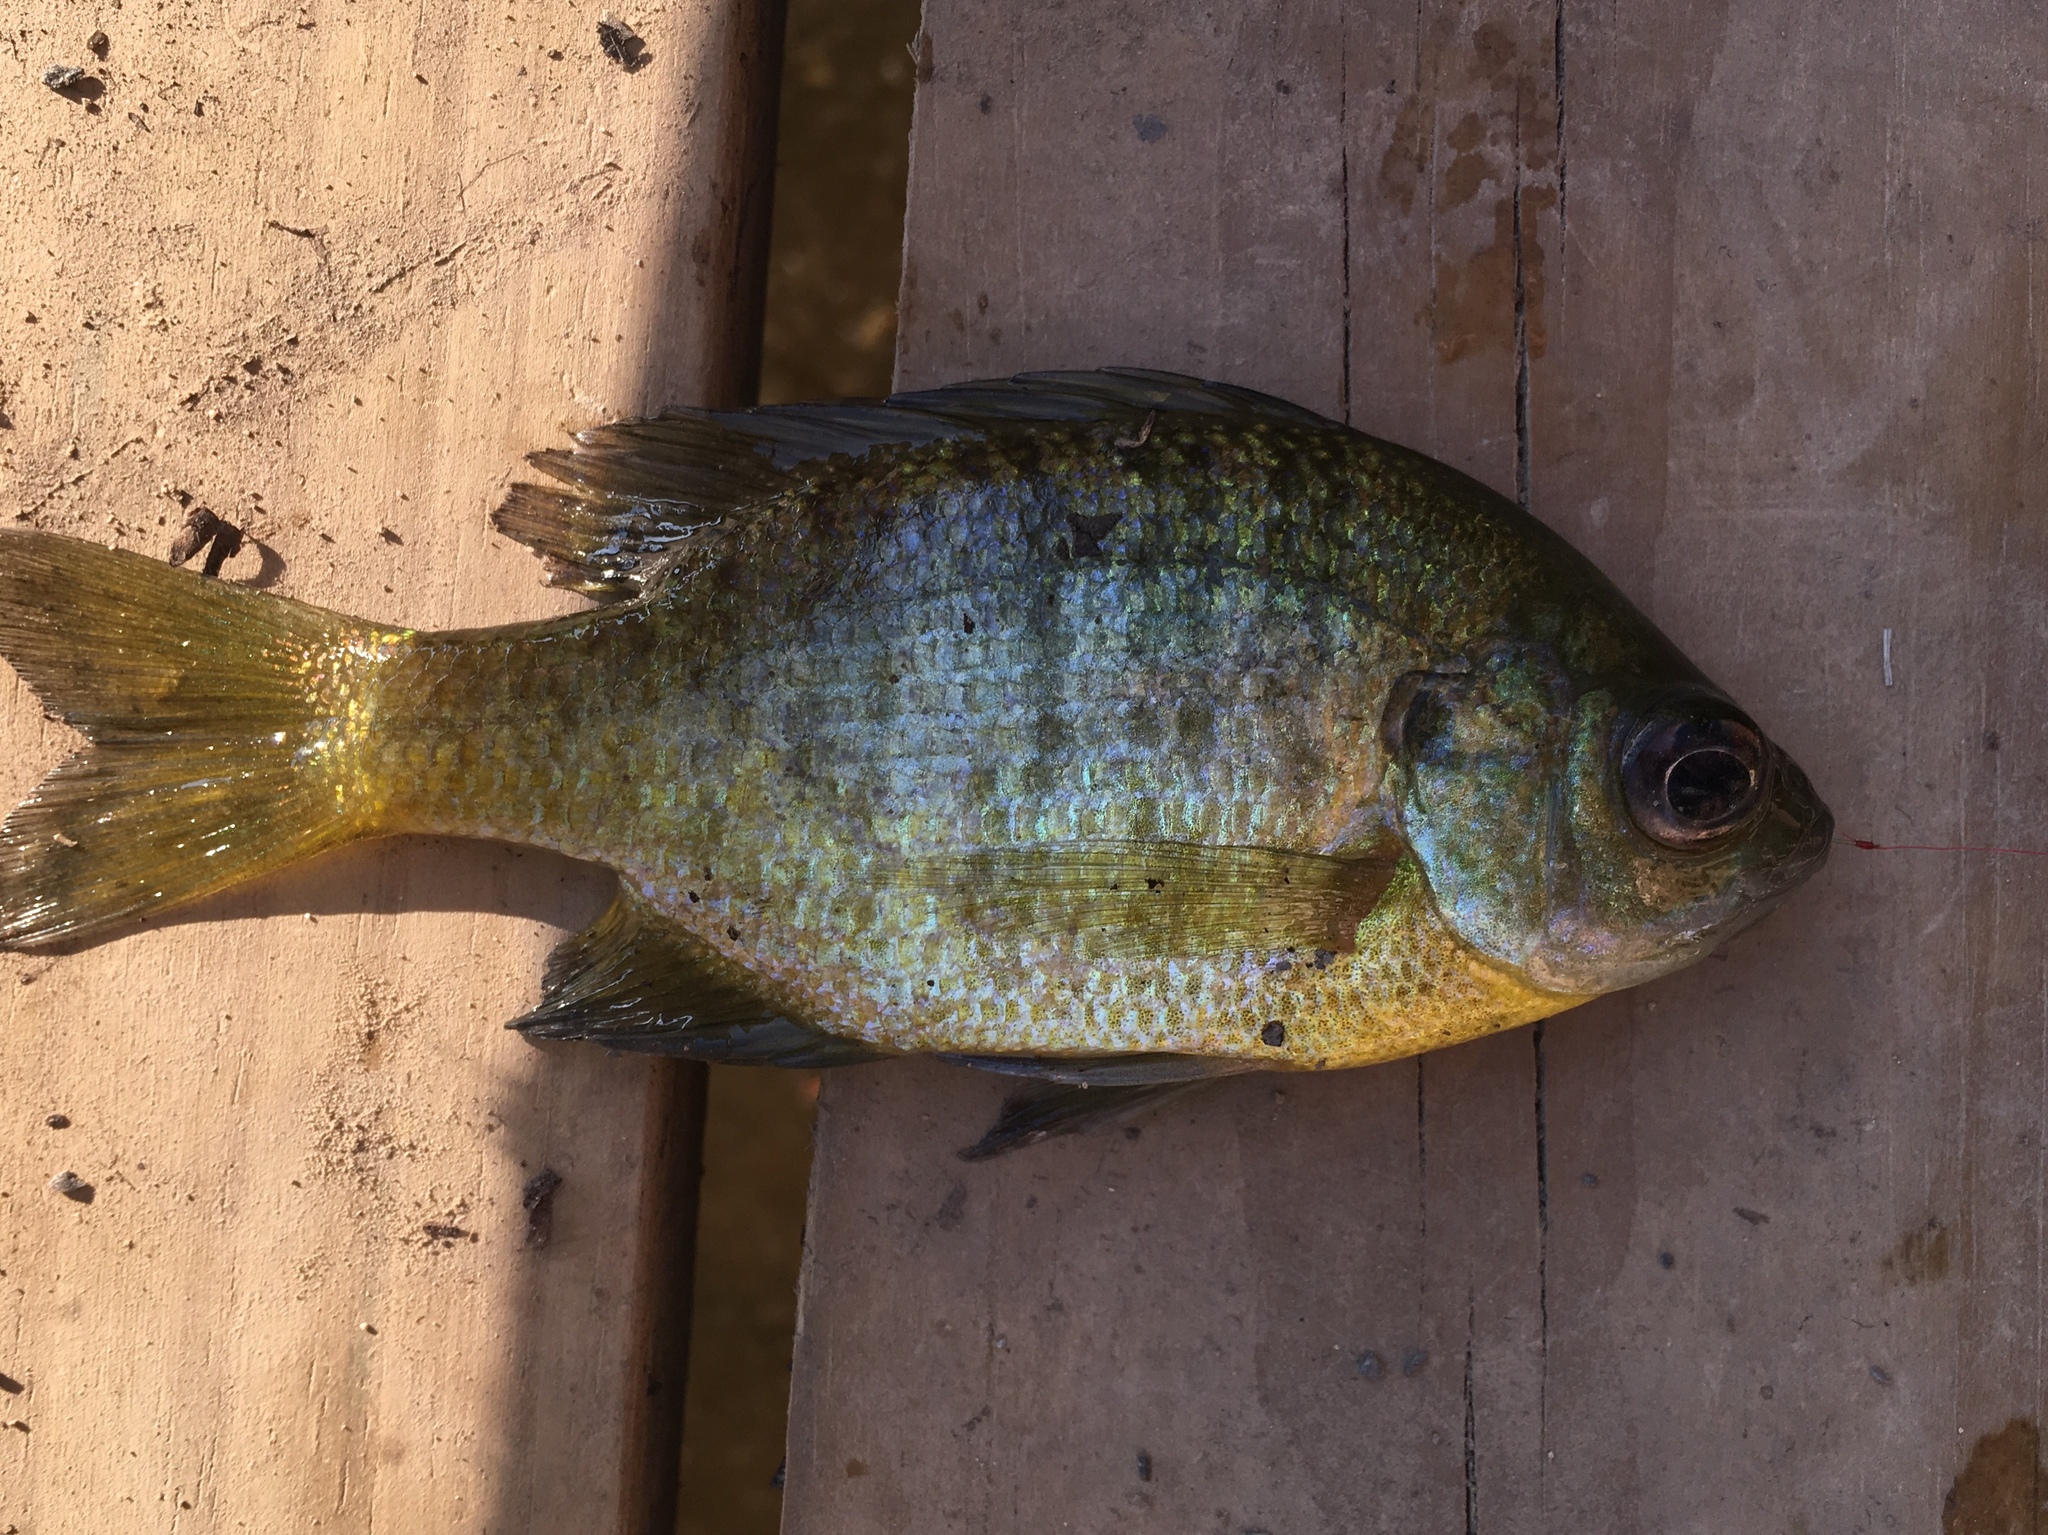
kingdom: Animalia
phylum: Chordata
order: Perciformes
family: Centrarchidae
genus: Lepomis
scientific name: Lepomis macrochirus
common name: Bluegill
